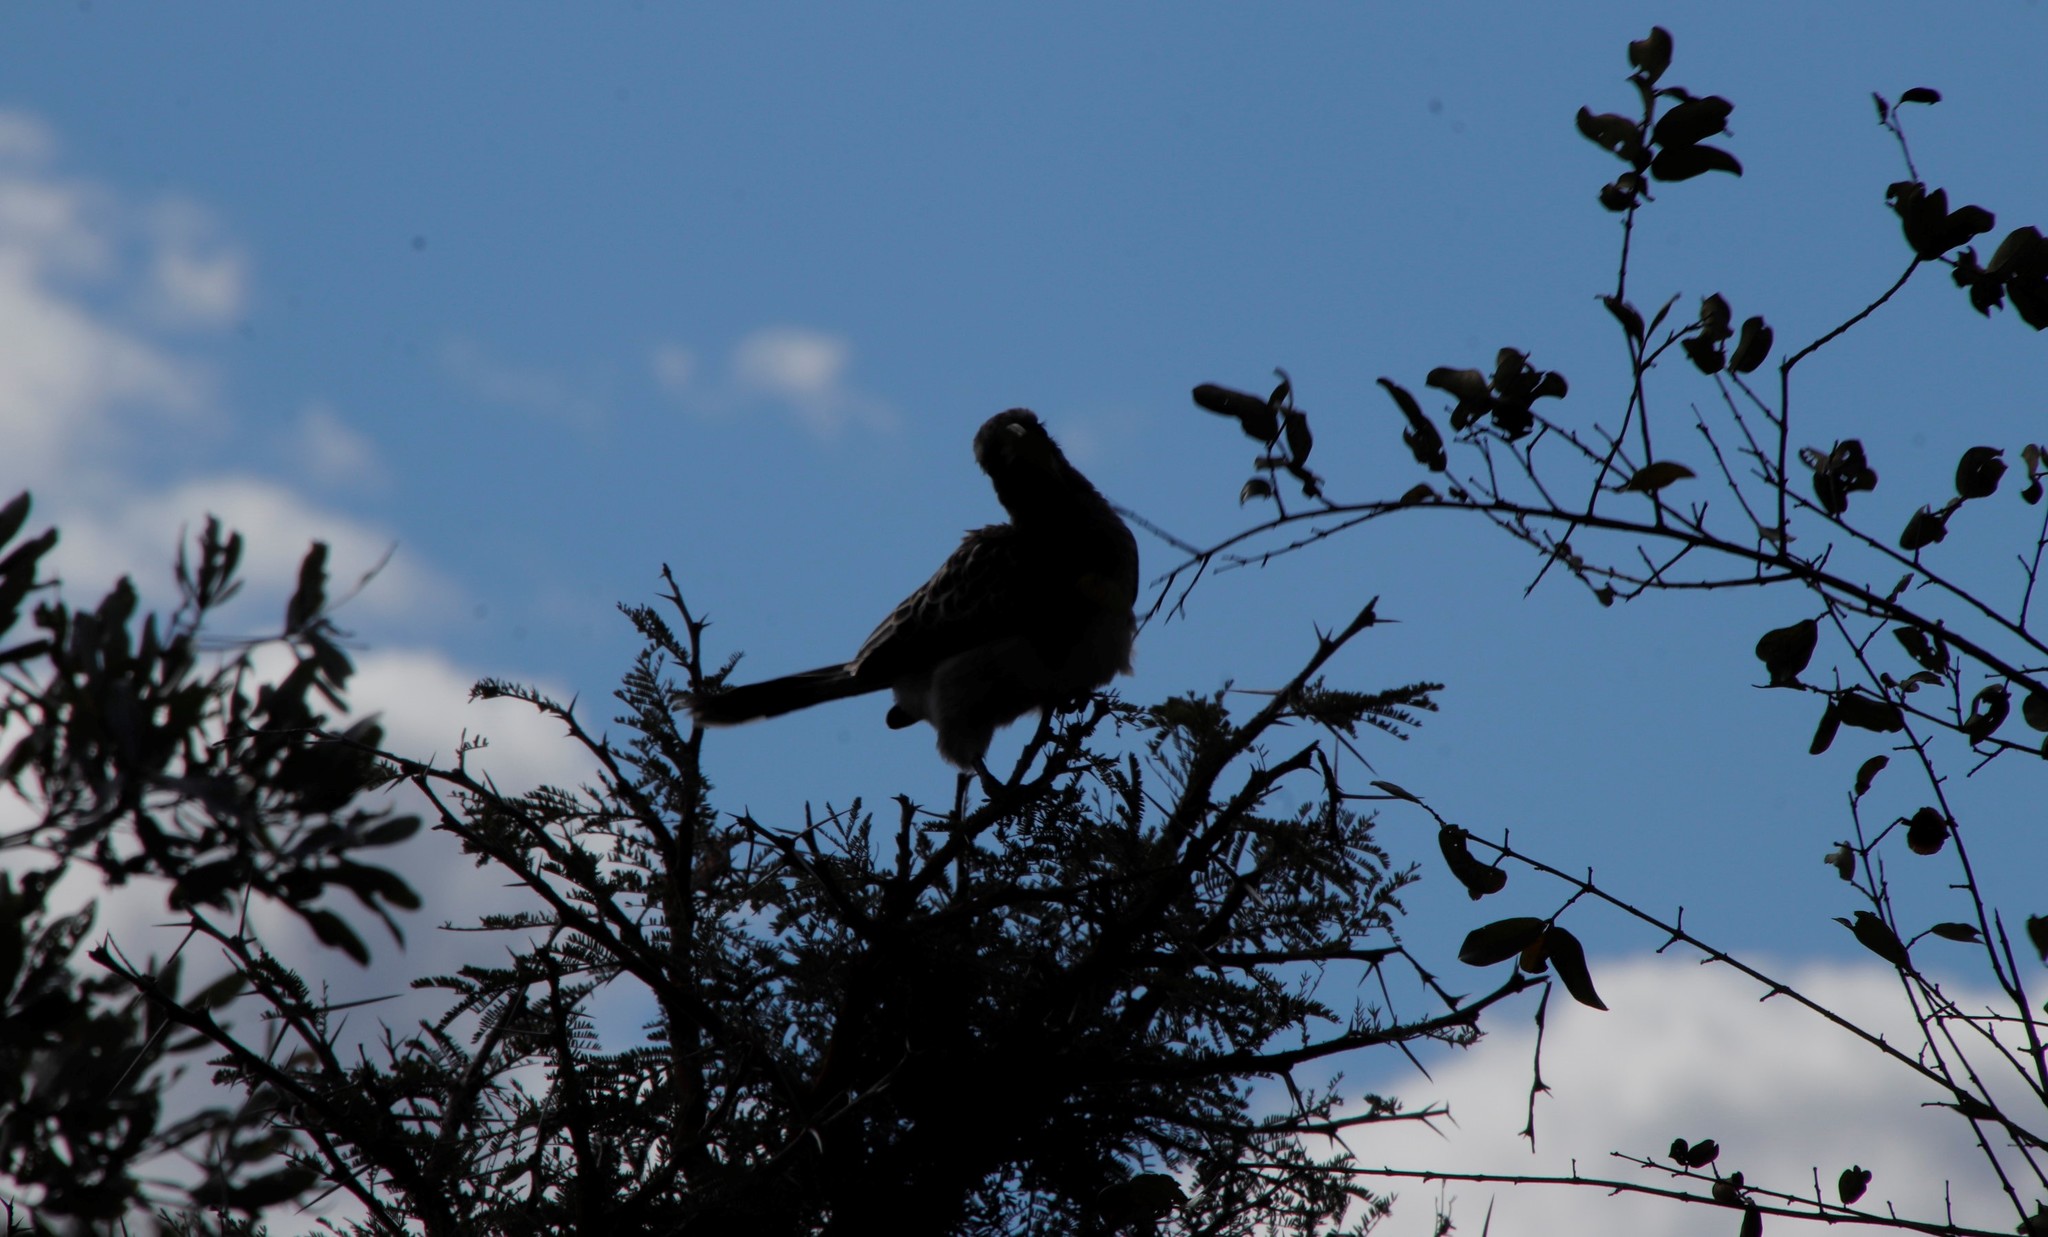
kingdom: Animalia
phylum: Chordata
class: Aves
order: Bucerotiformes
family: Bucerotidae
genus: Lophoceros
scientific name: Lophoceros nasutus
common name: African grey hornbill
